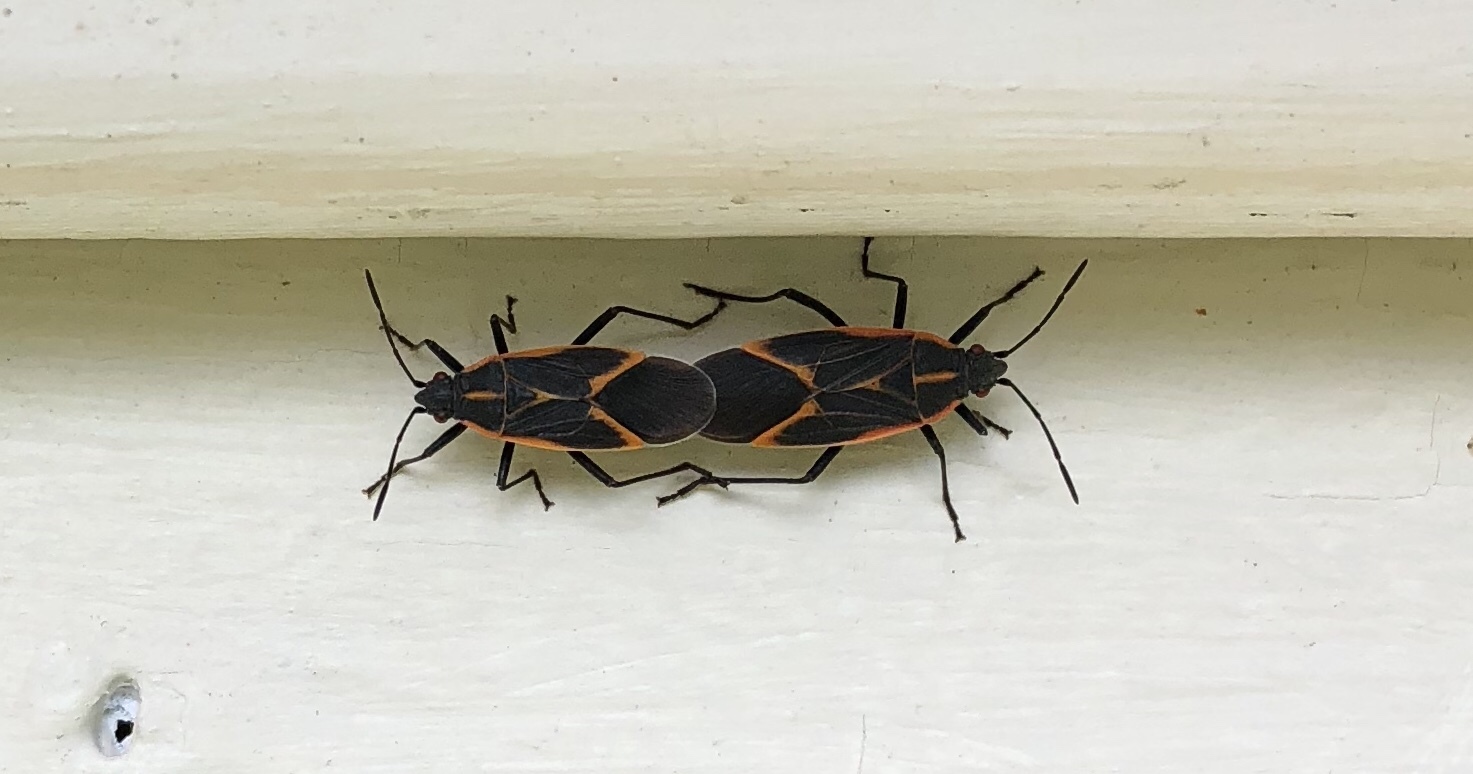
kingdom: Animalia
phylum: Arthropoda
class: Insecta
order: Hemiptera
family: Rhopalidae
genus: Boisea
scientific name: Boisea trivittata
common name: Boxelder bug
